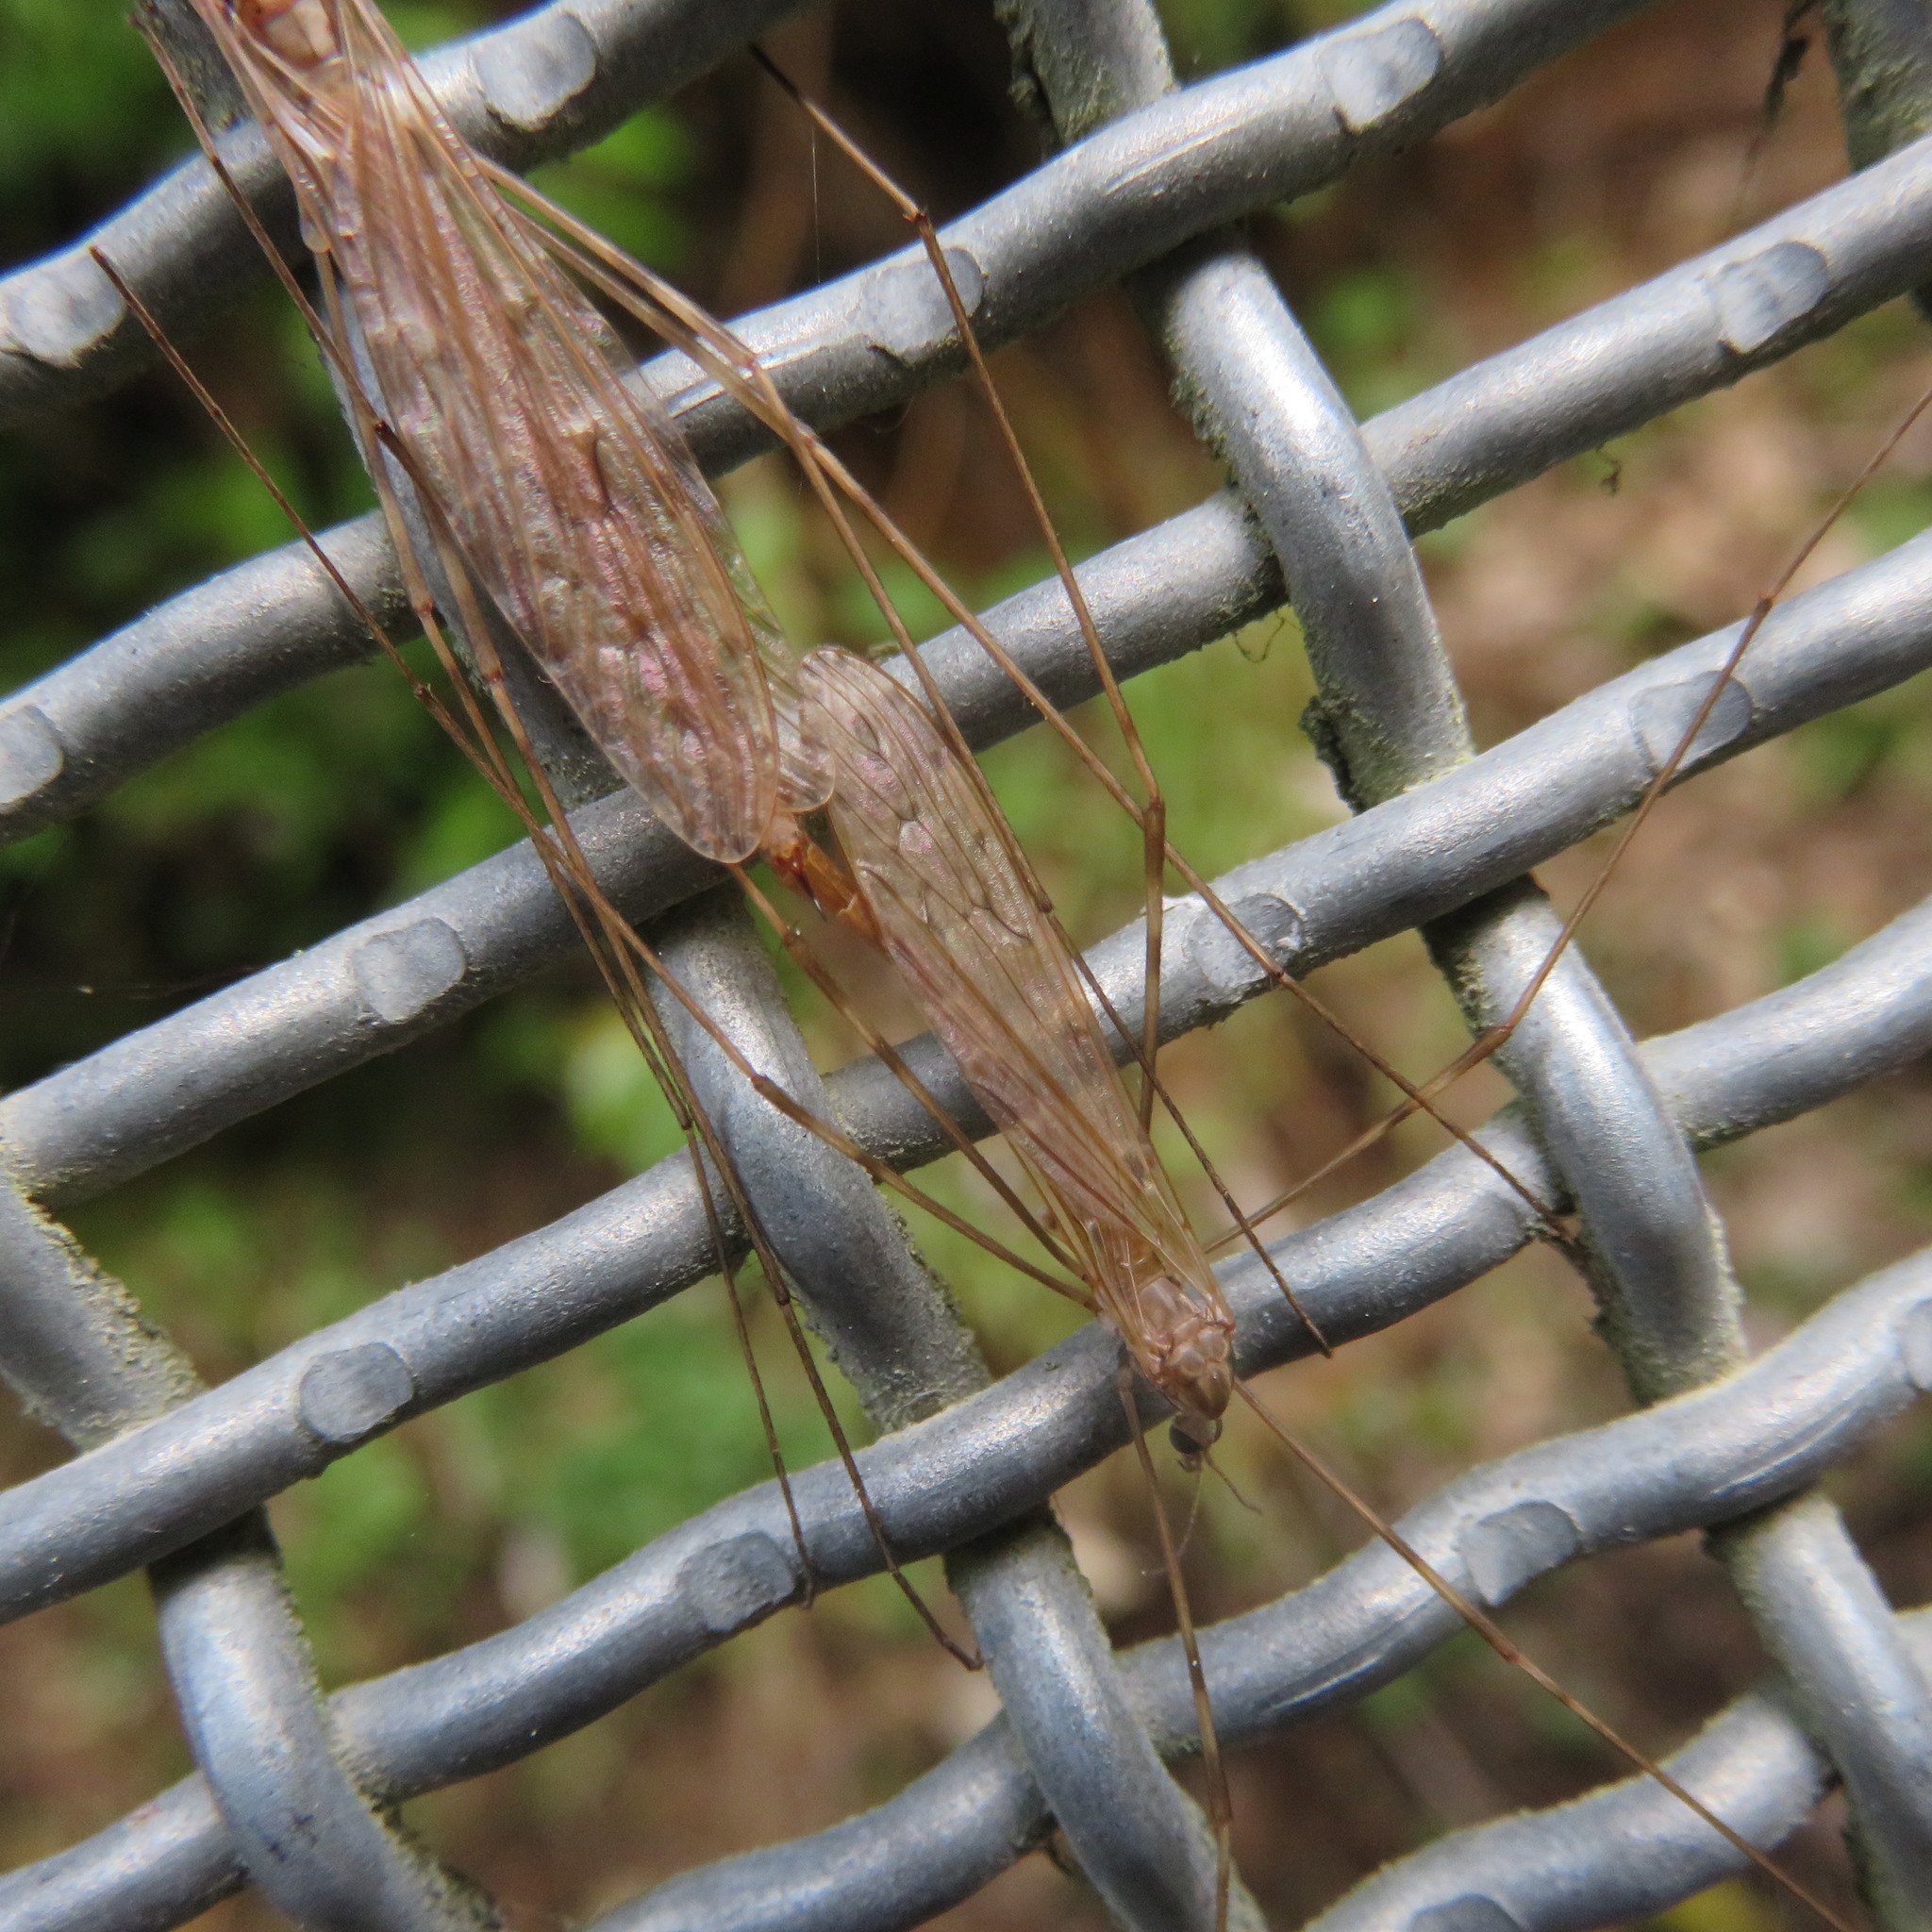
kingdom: Animalia
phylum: Arthropoda
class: Insecta
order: Diptera
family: Limoniidae
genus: Austrolimnophila
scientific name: Austrolimnophila crassipes
